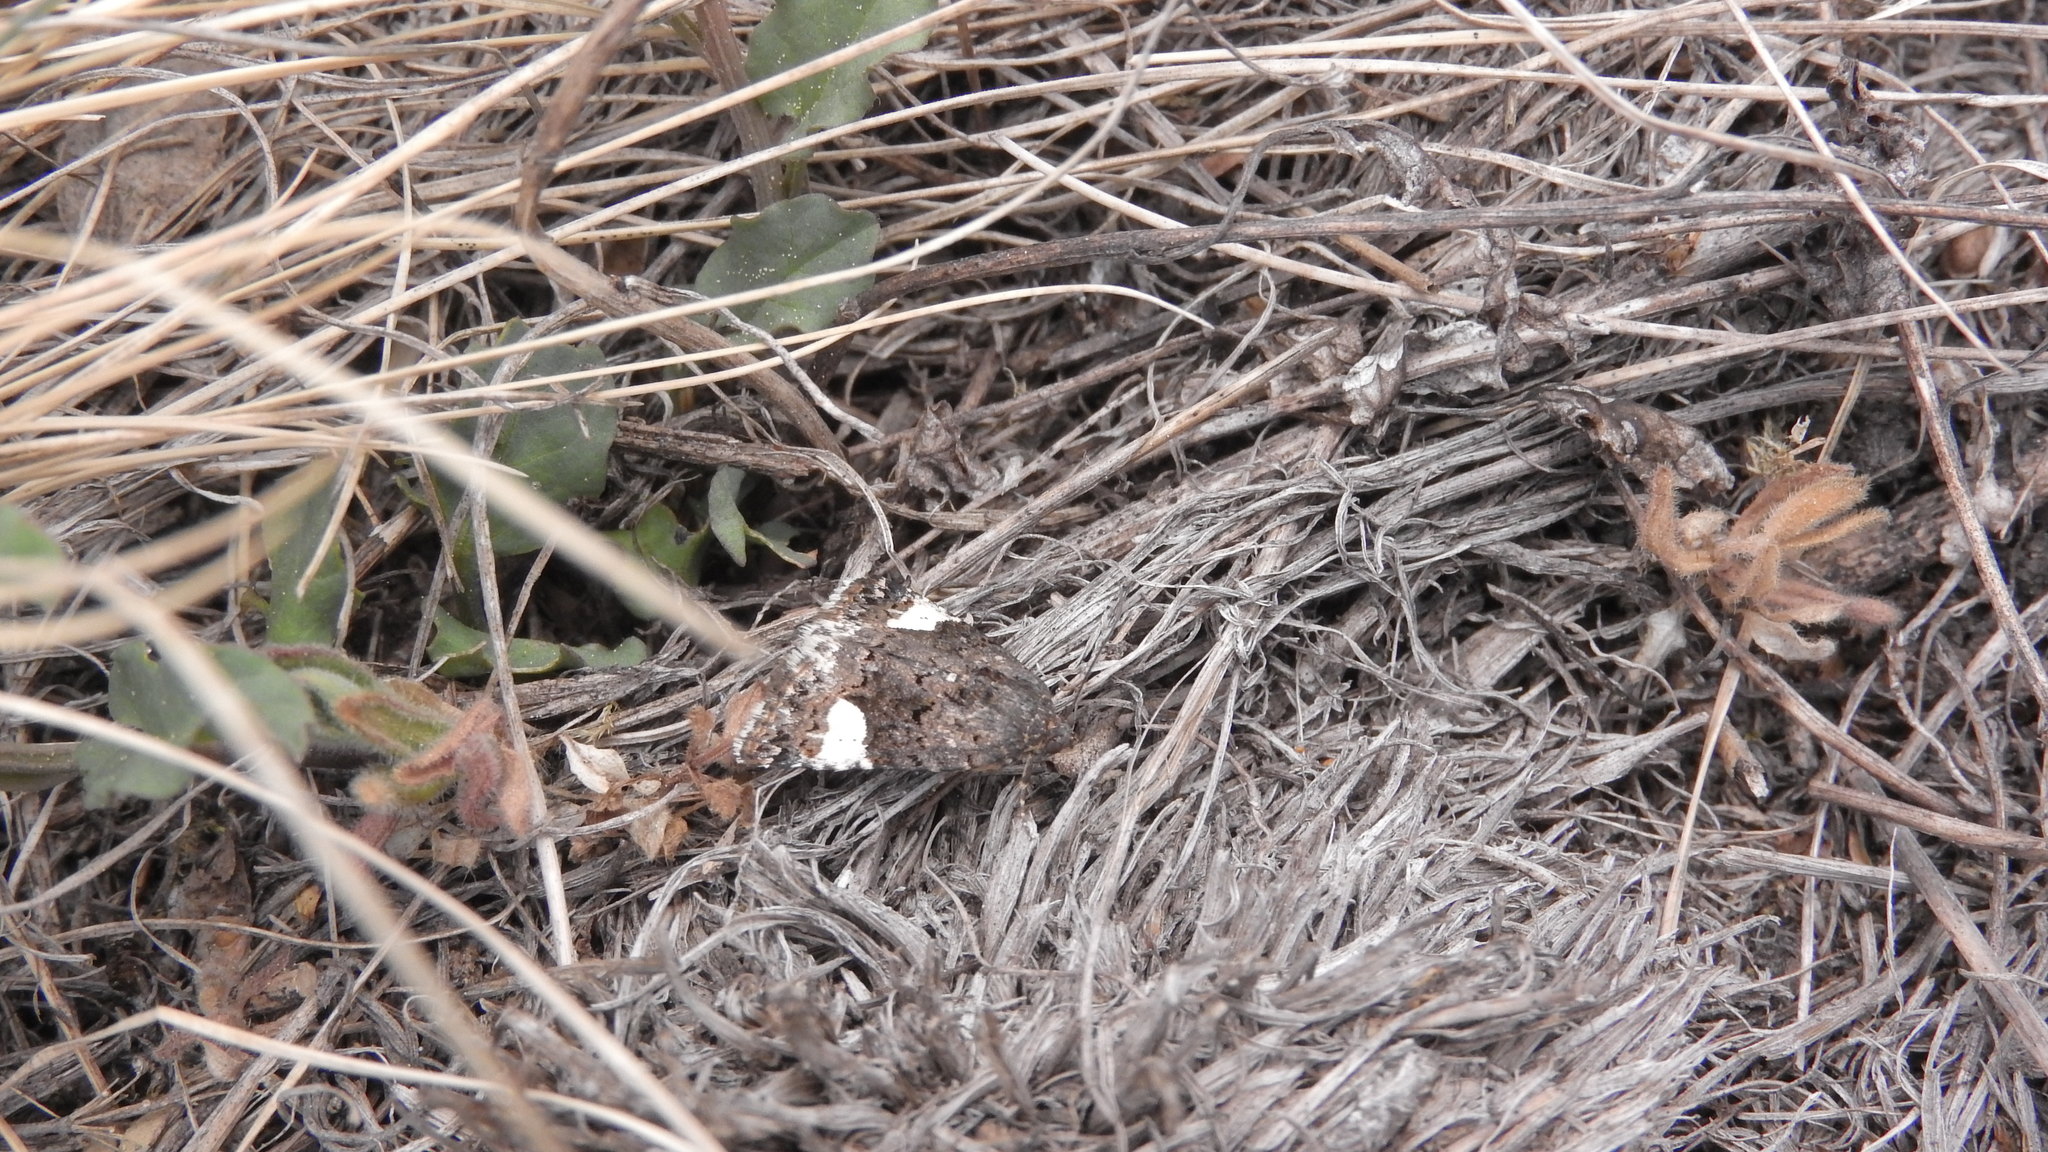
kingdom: Animalia
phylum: Arthropoda
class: Insecta
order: Lepidoptera
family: Erebidae
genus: Tyta
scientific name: Tyta luctuosa
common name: Four-spotted
